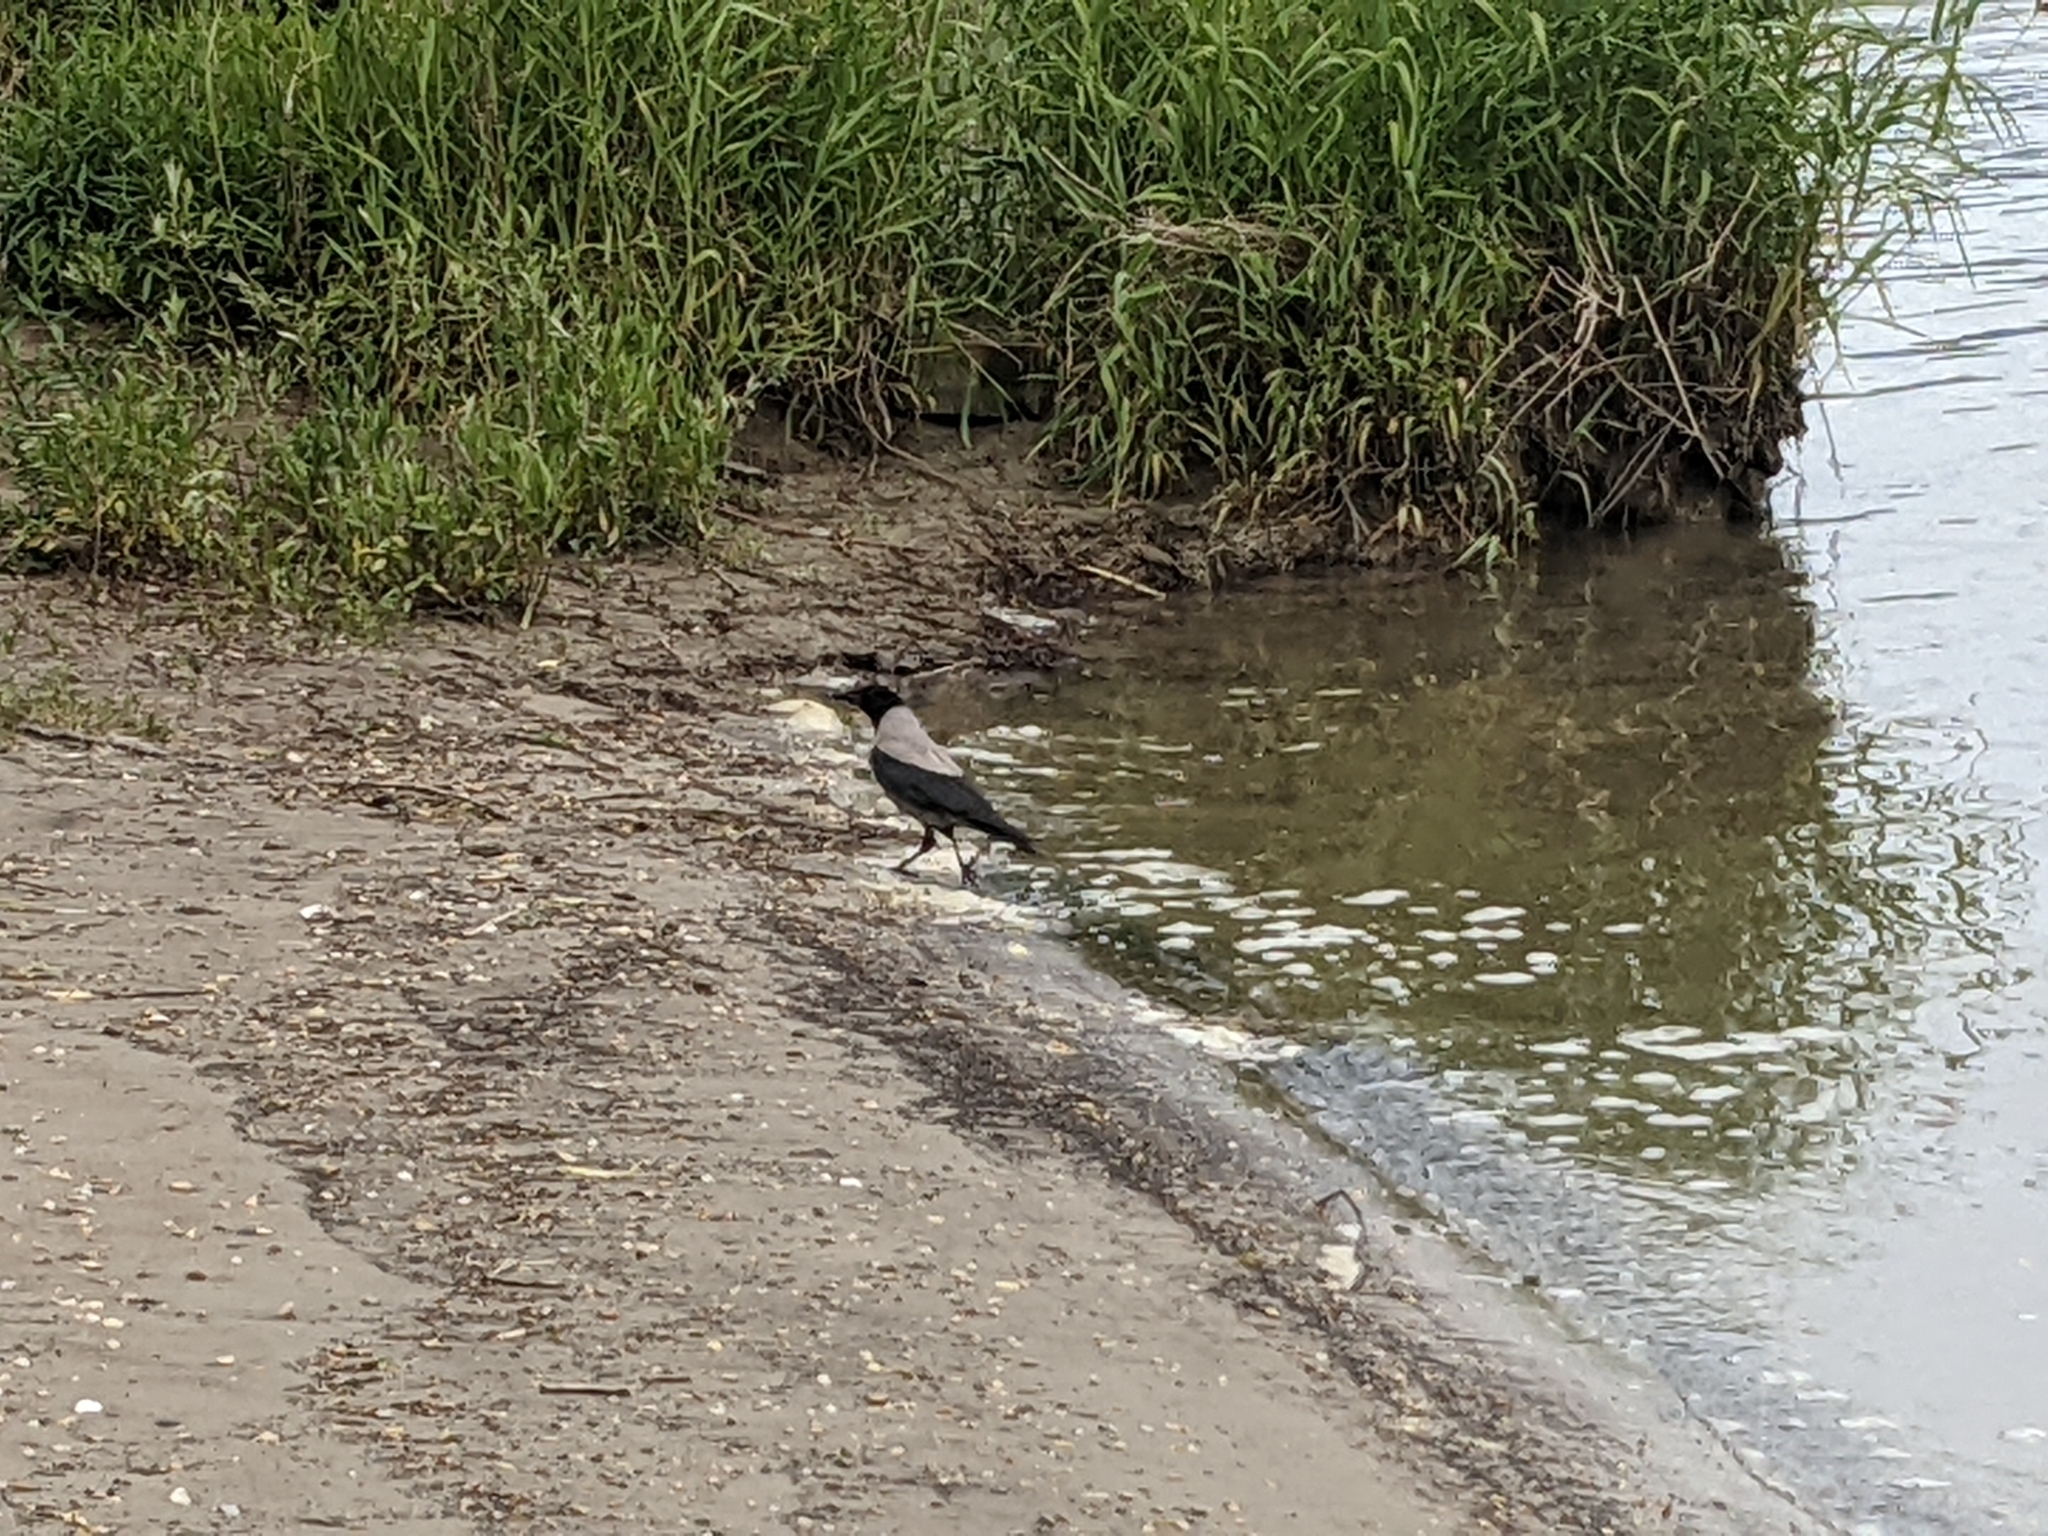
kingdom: Animalia
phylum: Chordata
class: Aves
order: Passeriformes
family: Corvidae
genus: Corvus
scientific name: Corvus cornix
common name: Hooded crow
